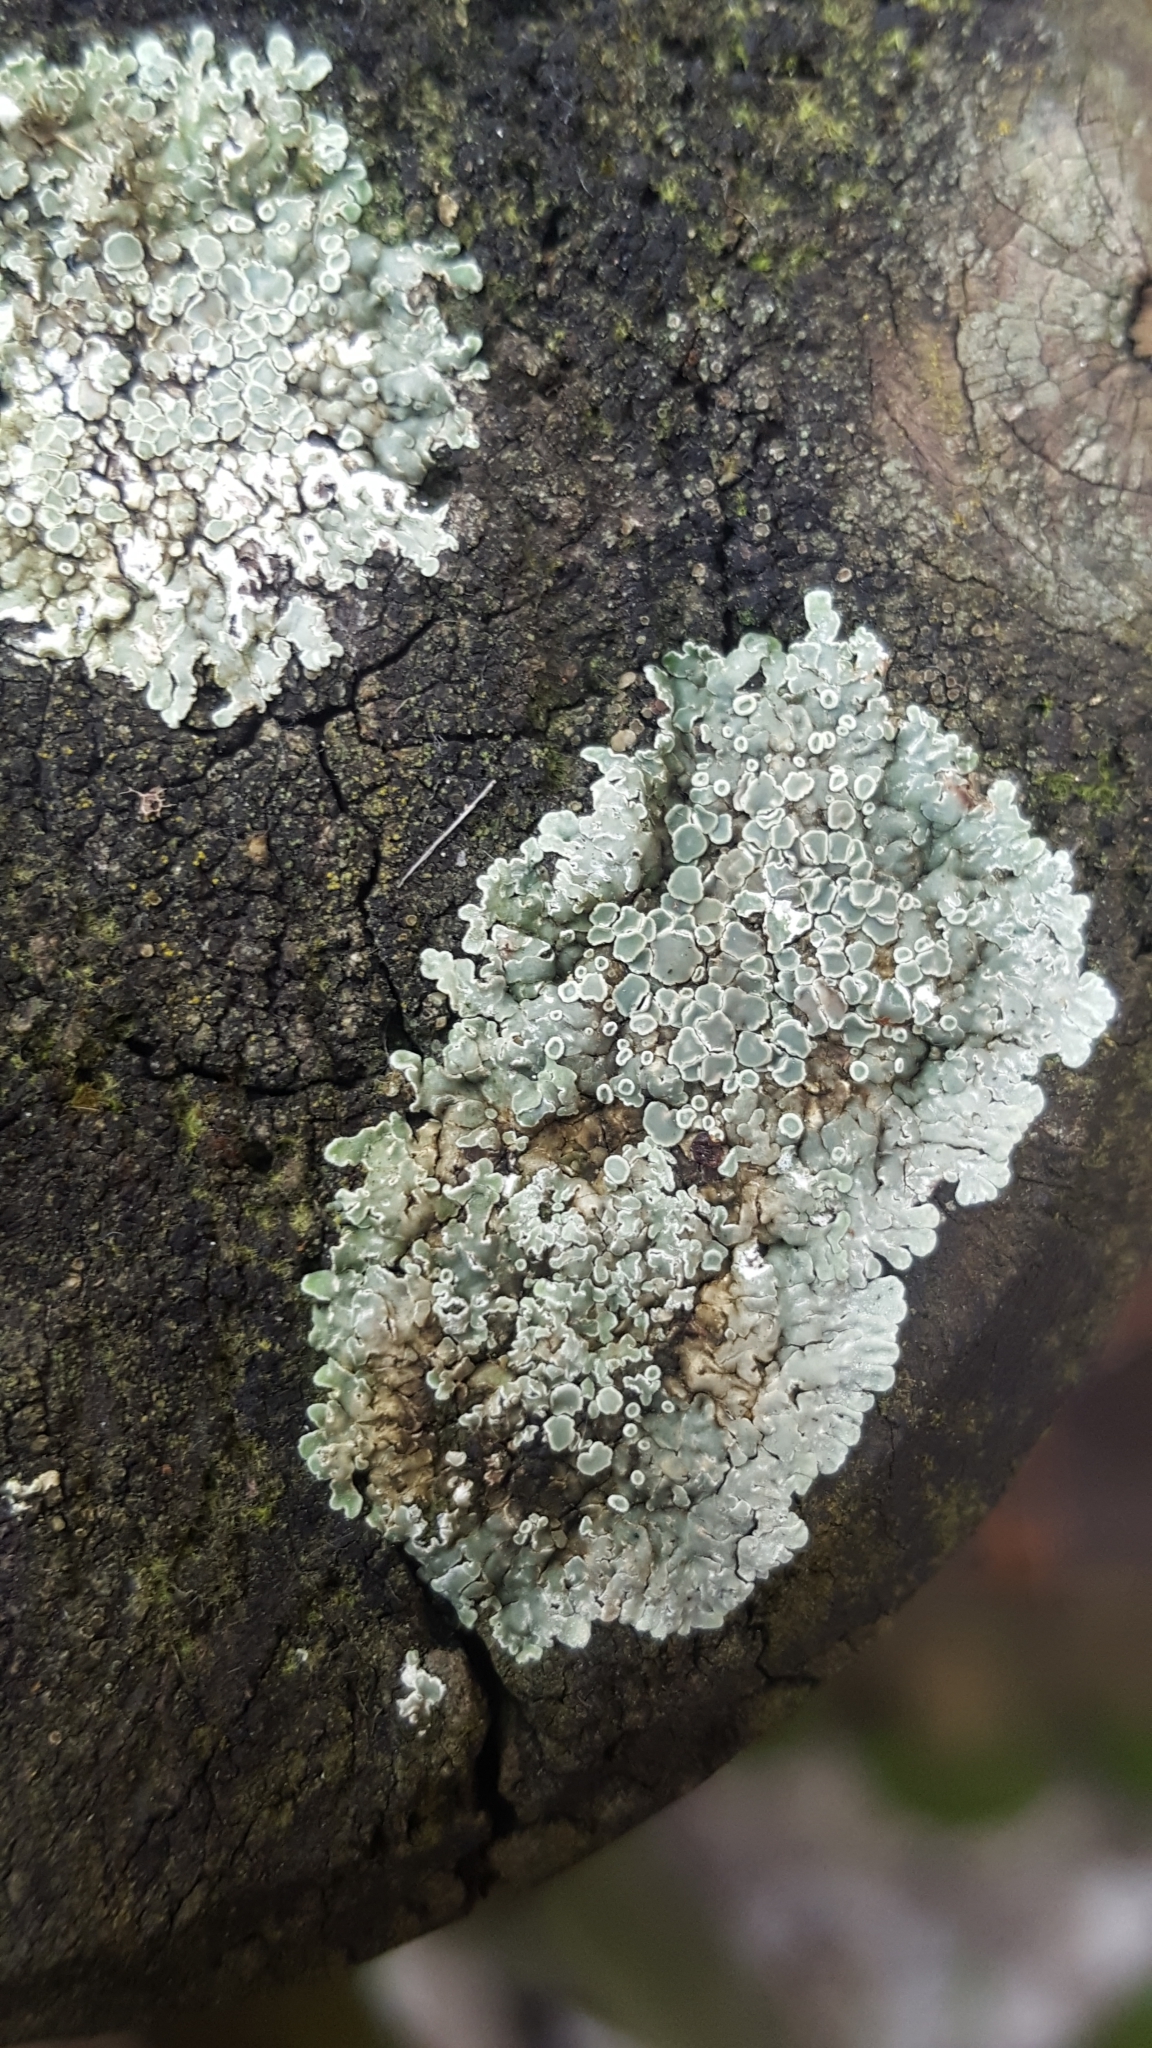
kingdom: Fungi
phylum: Ascomycota
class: Lecanoromycetes
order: Lecanorales
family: Lecanoraceae
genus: Protoparmeliopsis
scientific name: Protoparmeliopsis muralis
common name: Stonewall rim lichen
